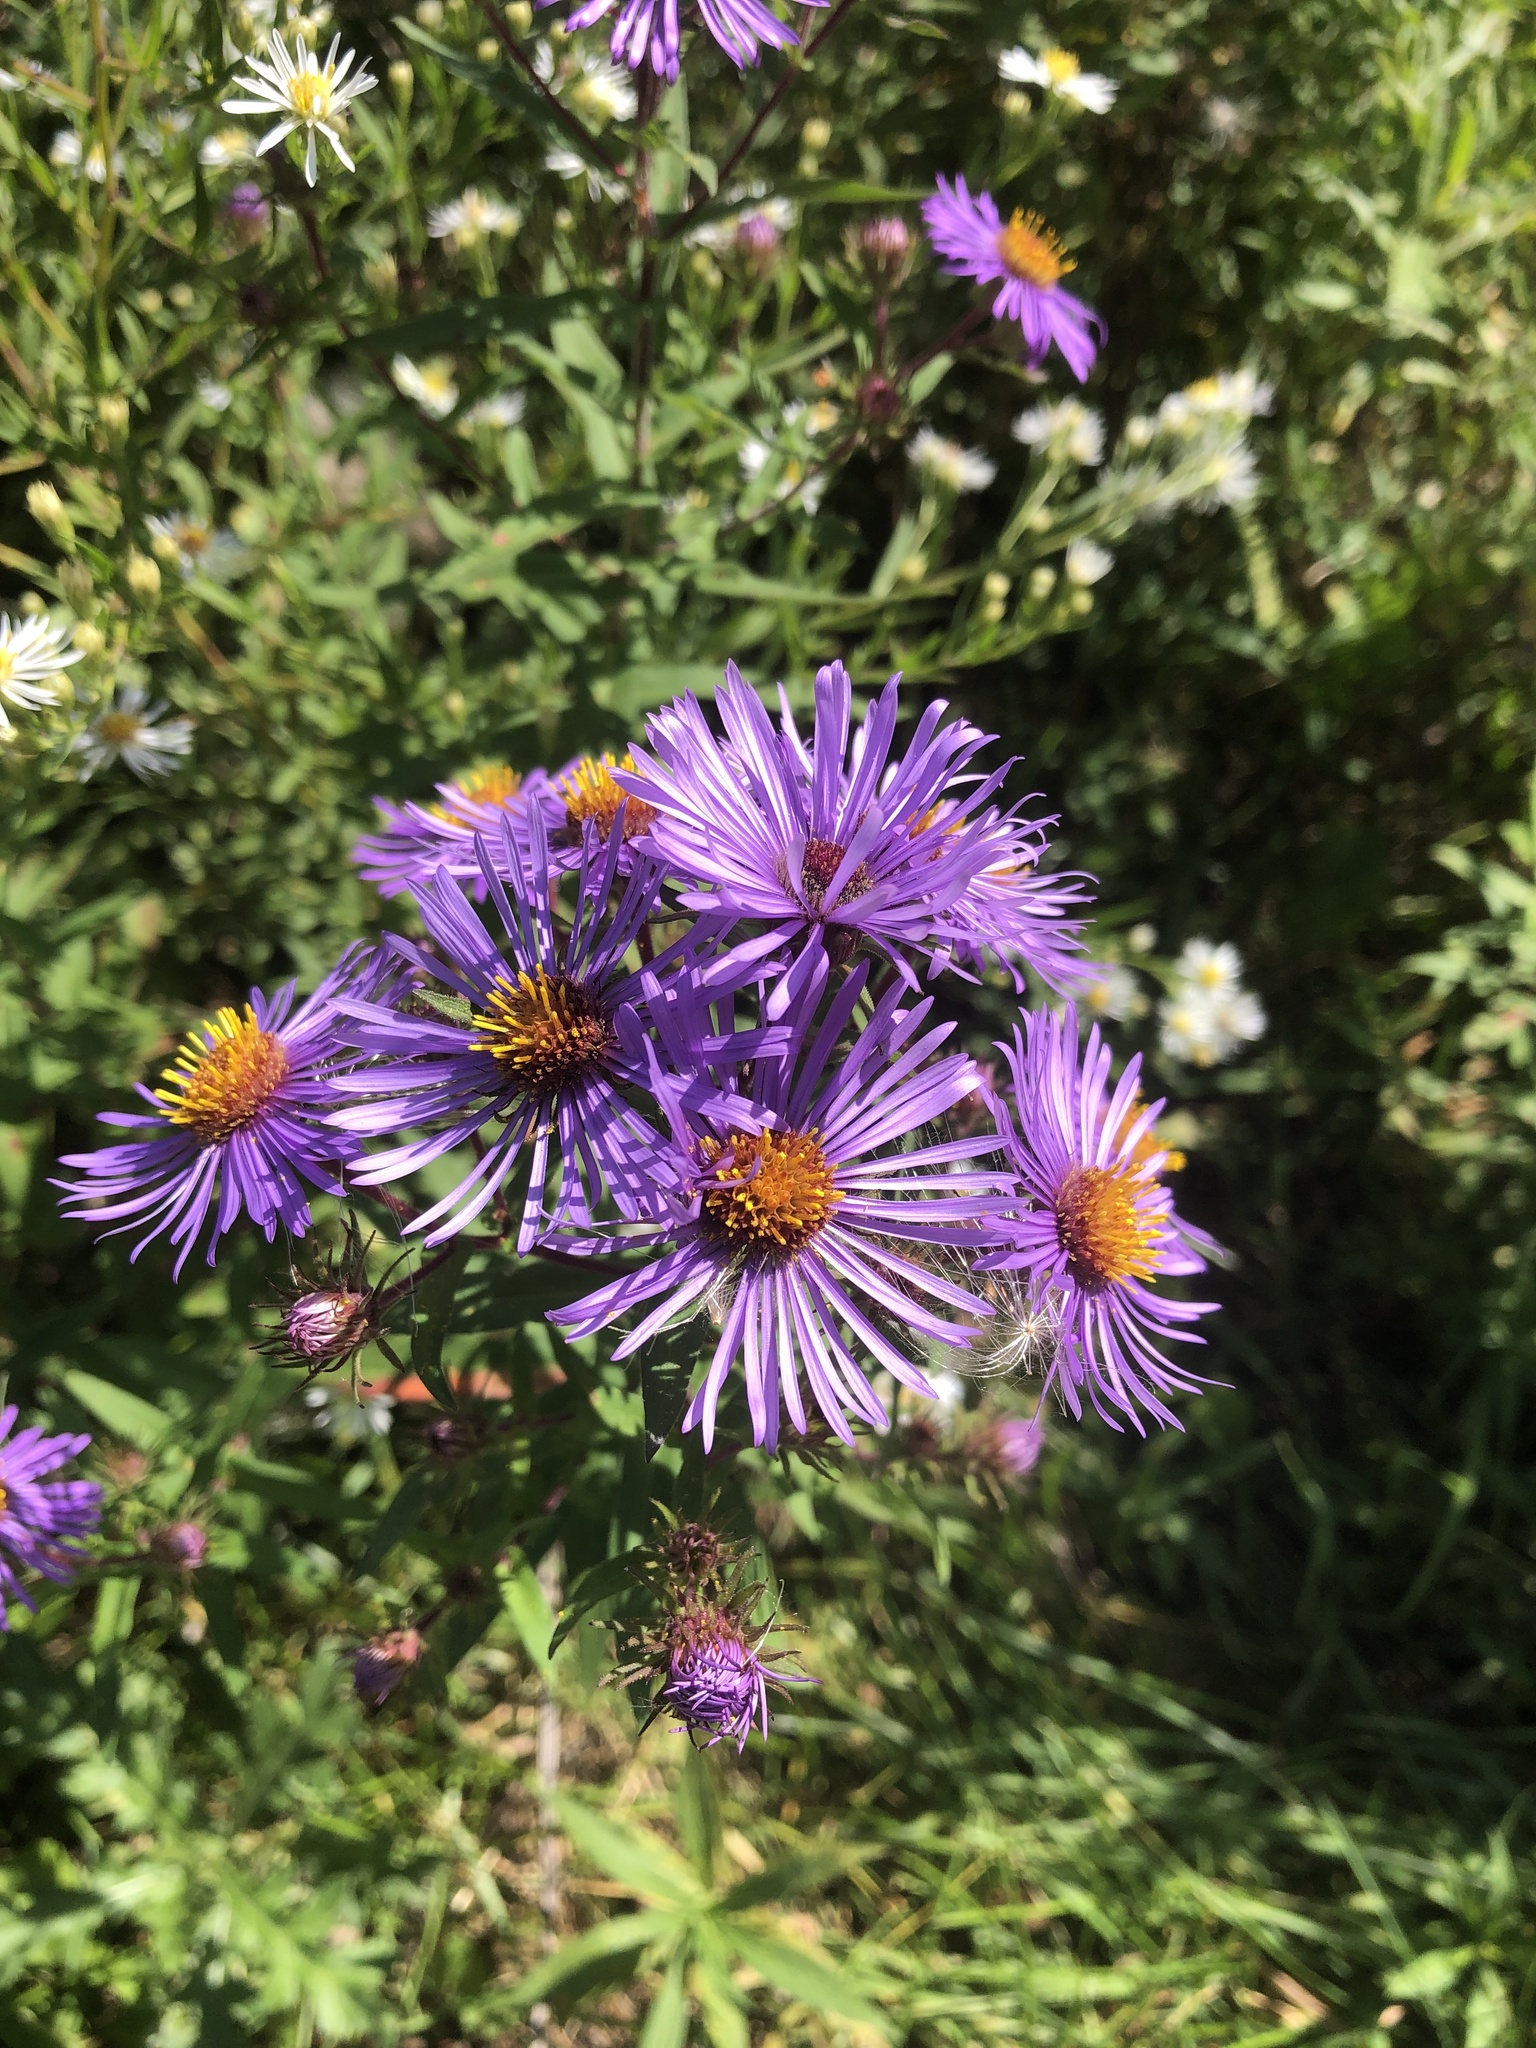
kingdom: Plantae
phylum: Tracheophyta
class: Magnoliopsida
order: Asterales
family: Asteraceae
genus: Symphyotrichum
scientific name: Symphyotrichum novae-angliae
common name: Michaelmas daisy
